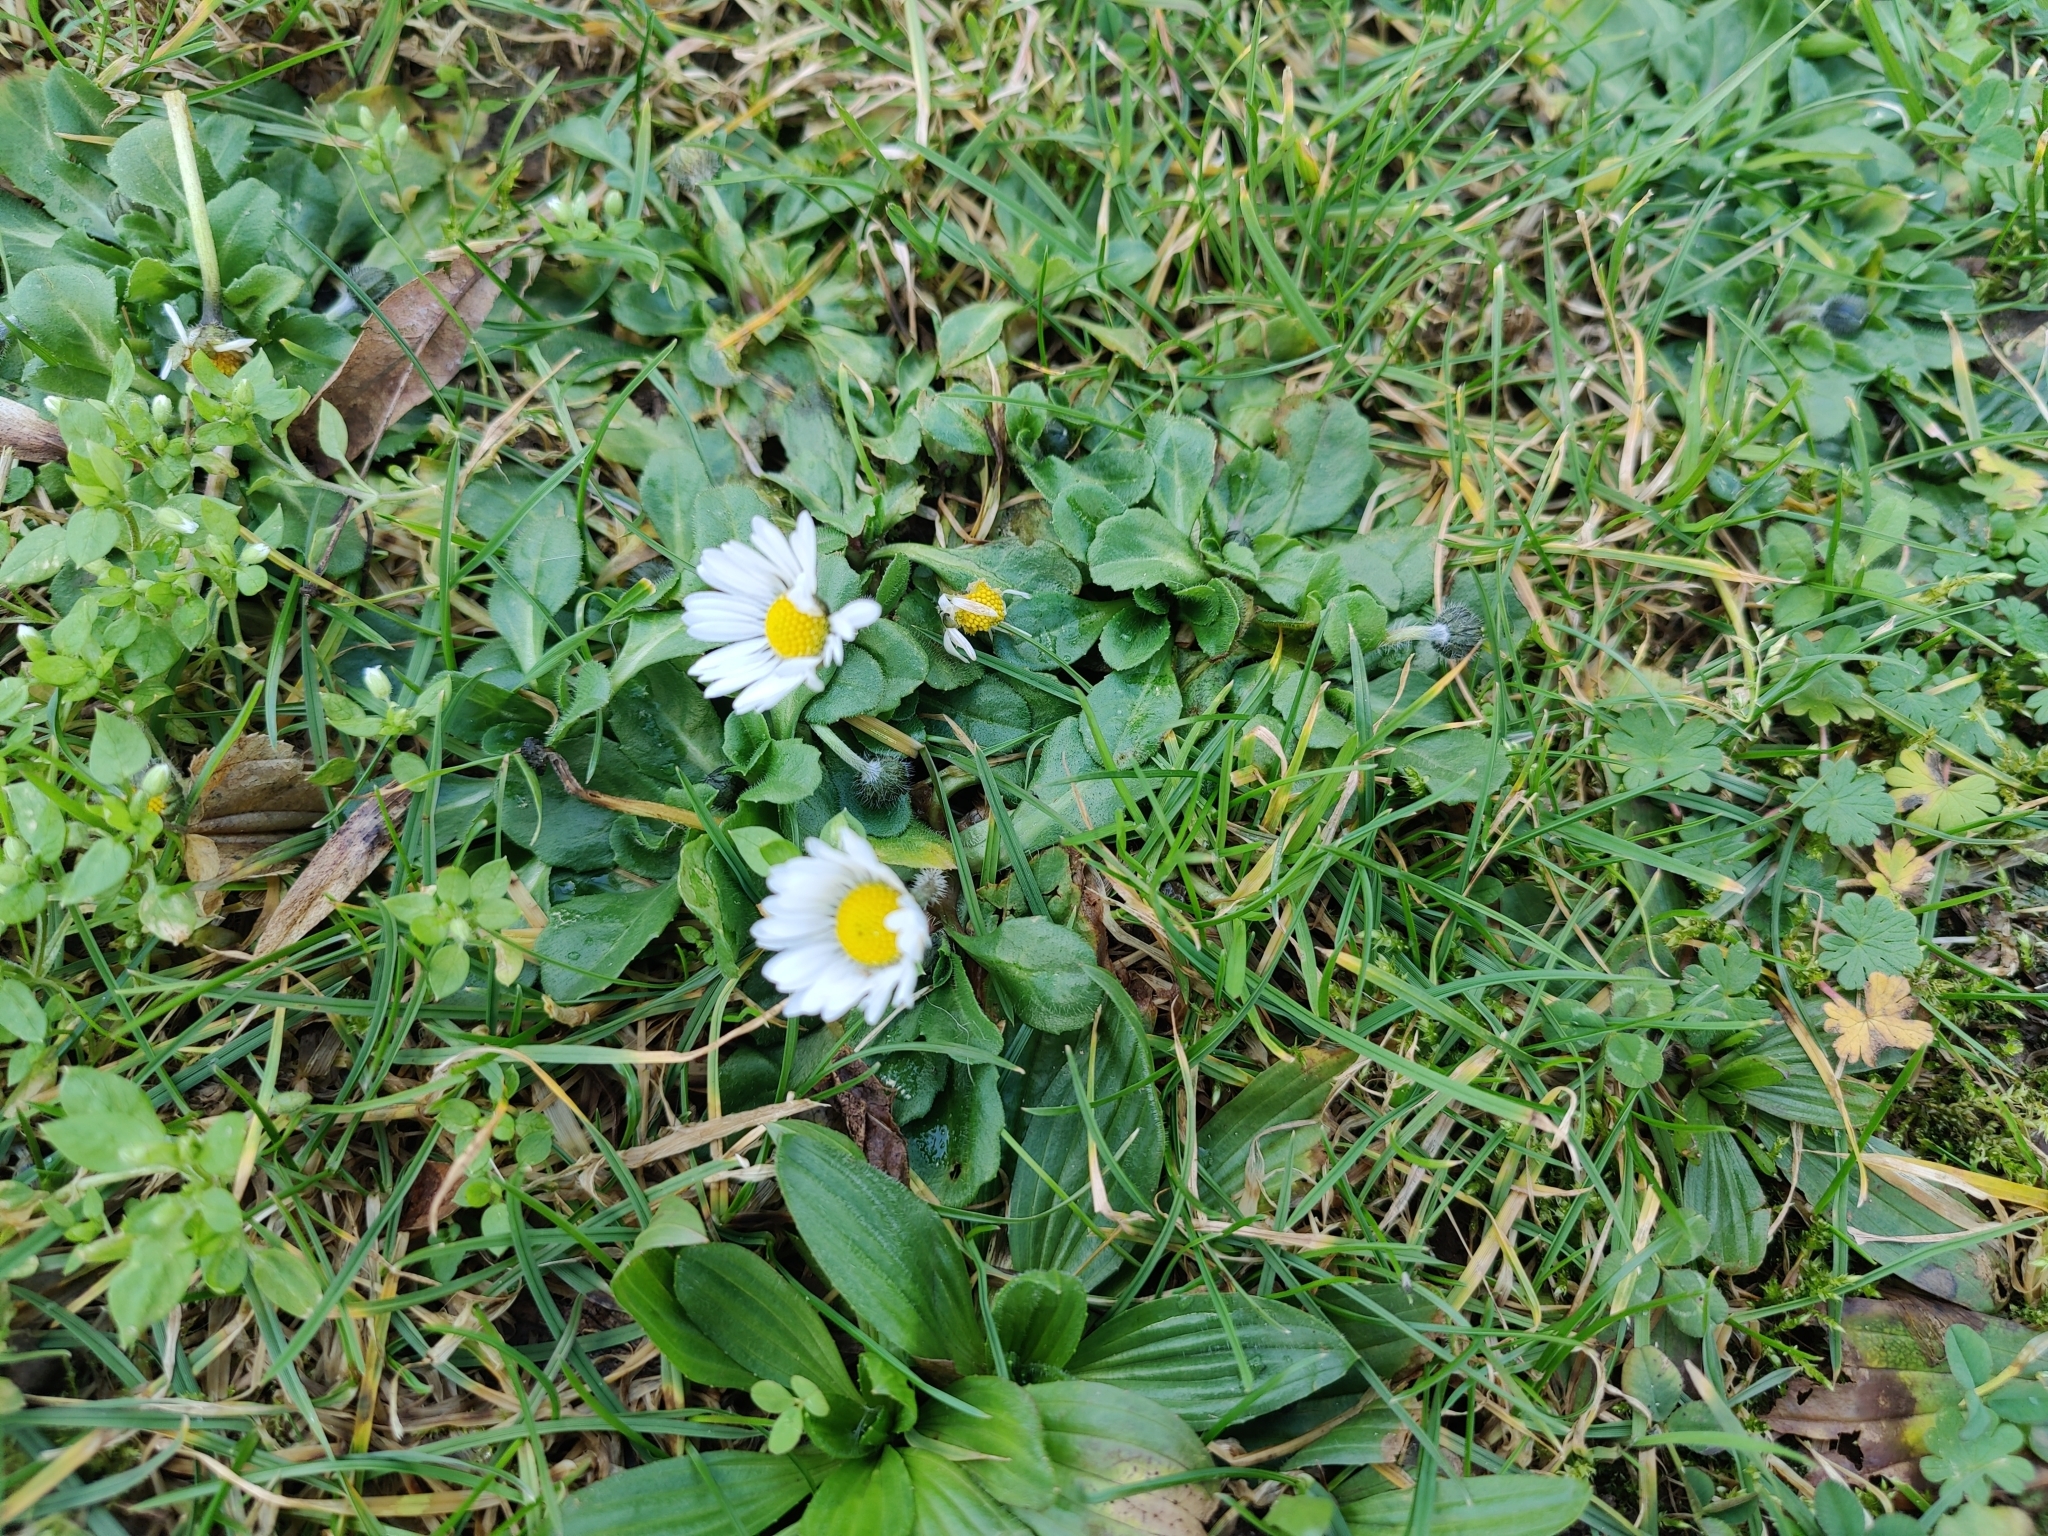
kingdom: Plantae
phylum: Tracheophyta
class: Magnoliopsida
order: Asterales
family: Asteraceae
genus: Bellis
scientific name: Bellis perennis
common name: Lawndaisy
